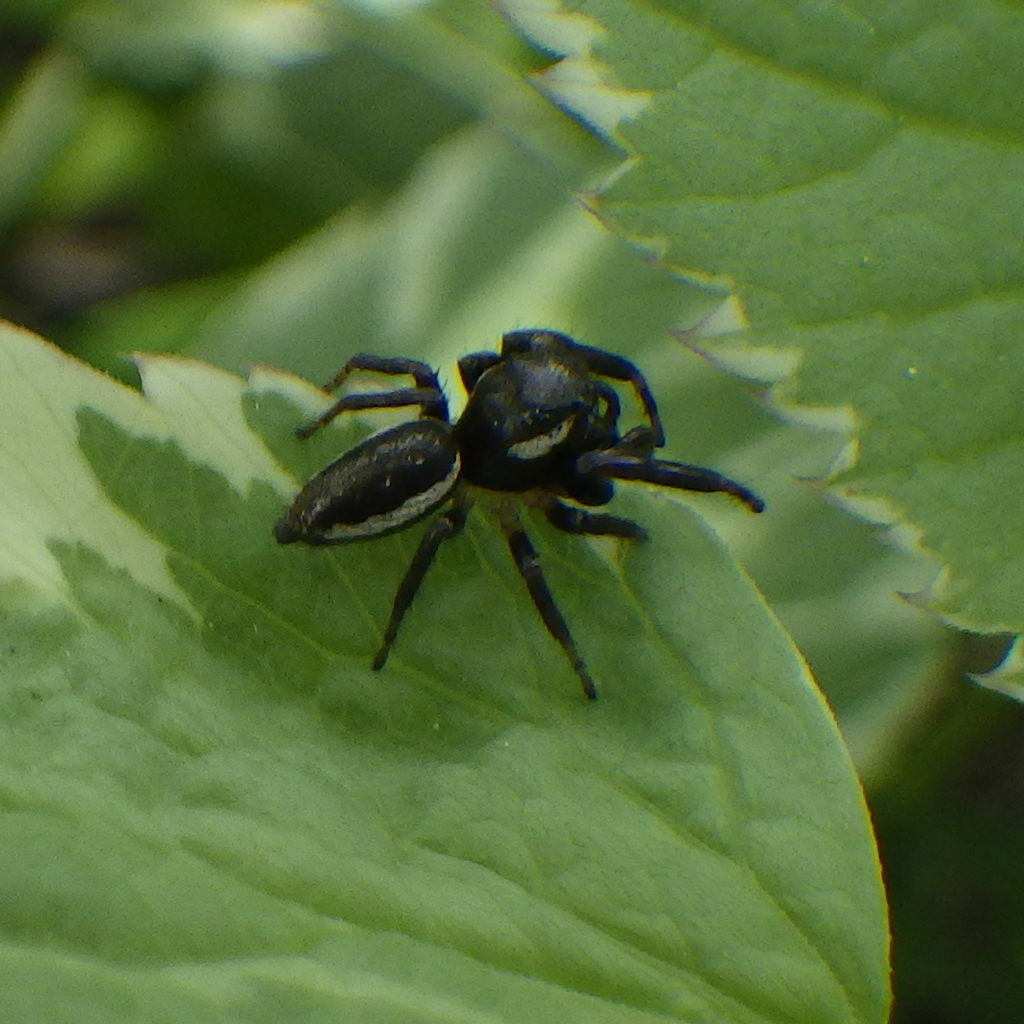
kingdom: Animalia
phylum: Arthropoda
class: Arachnida
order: Araneae
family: Salticidae
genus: Eris
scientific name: Eris militaris
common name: Bronze jumper
